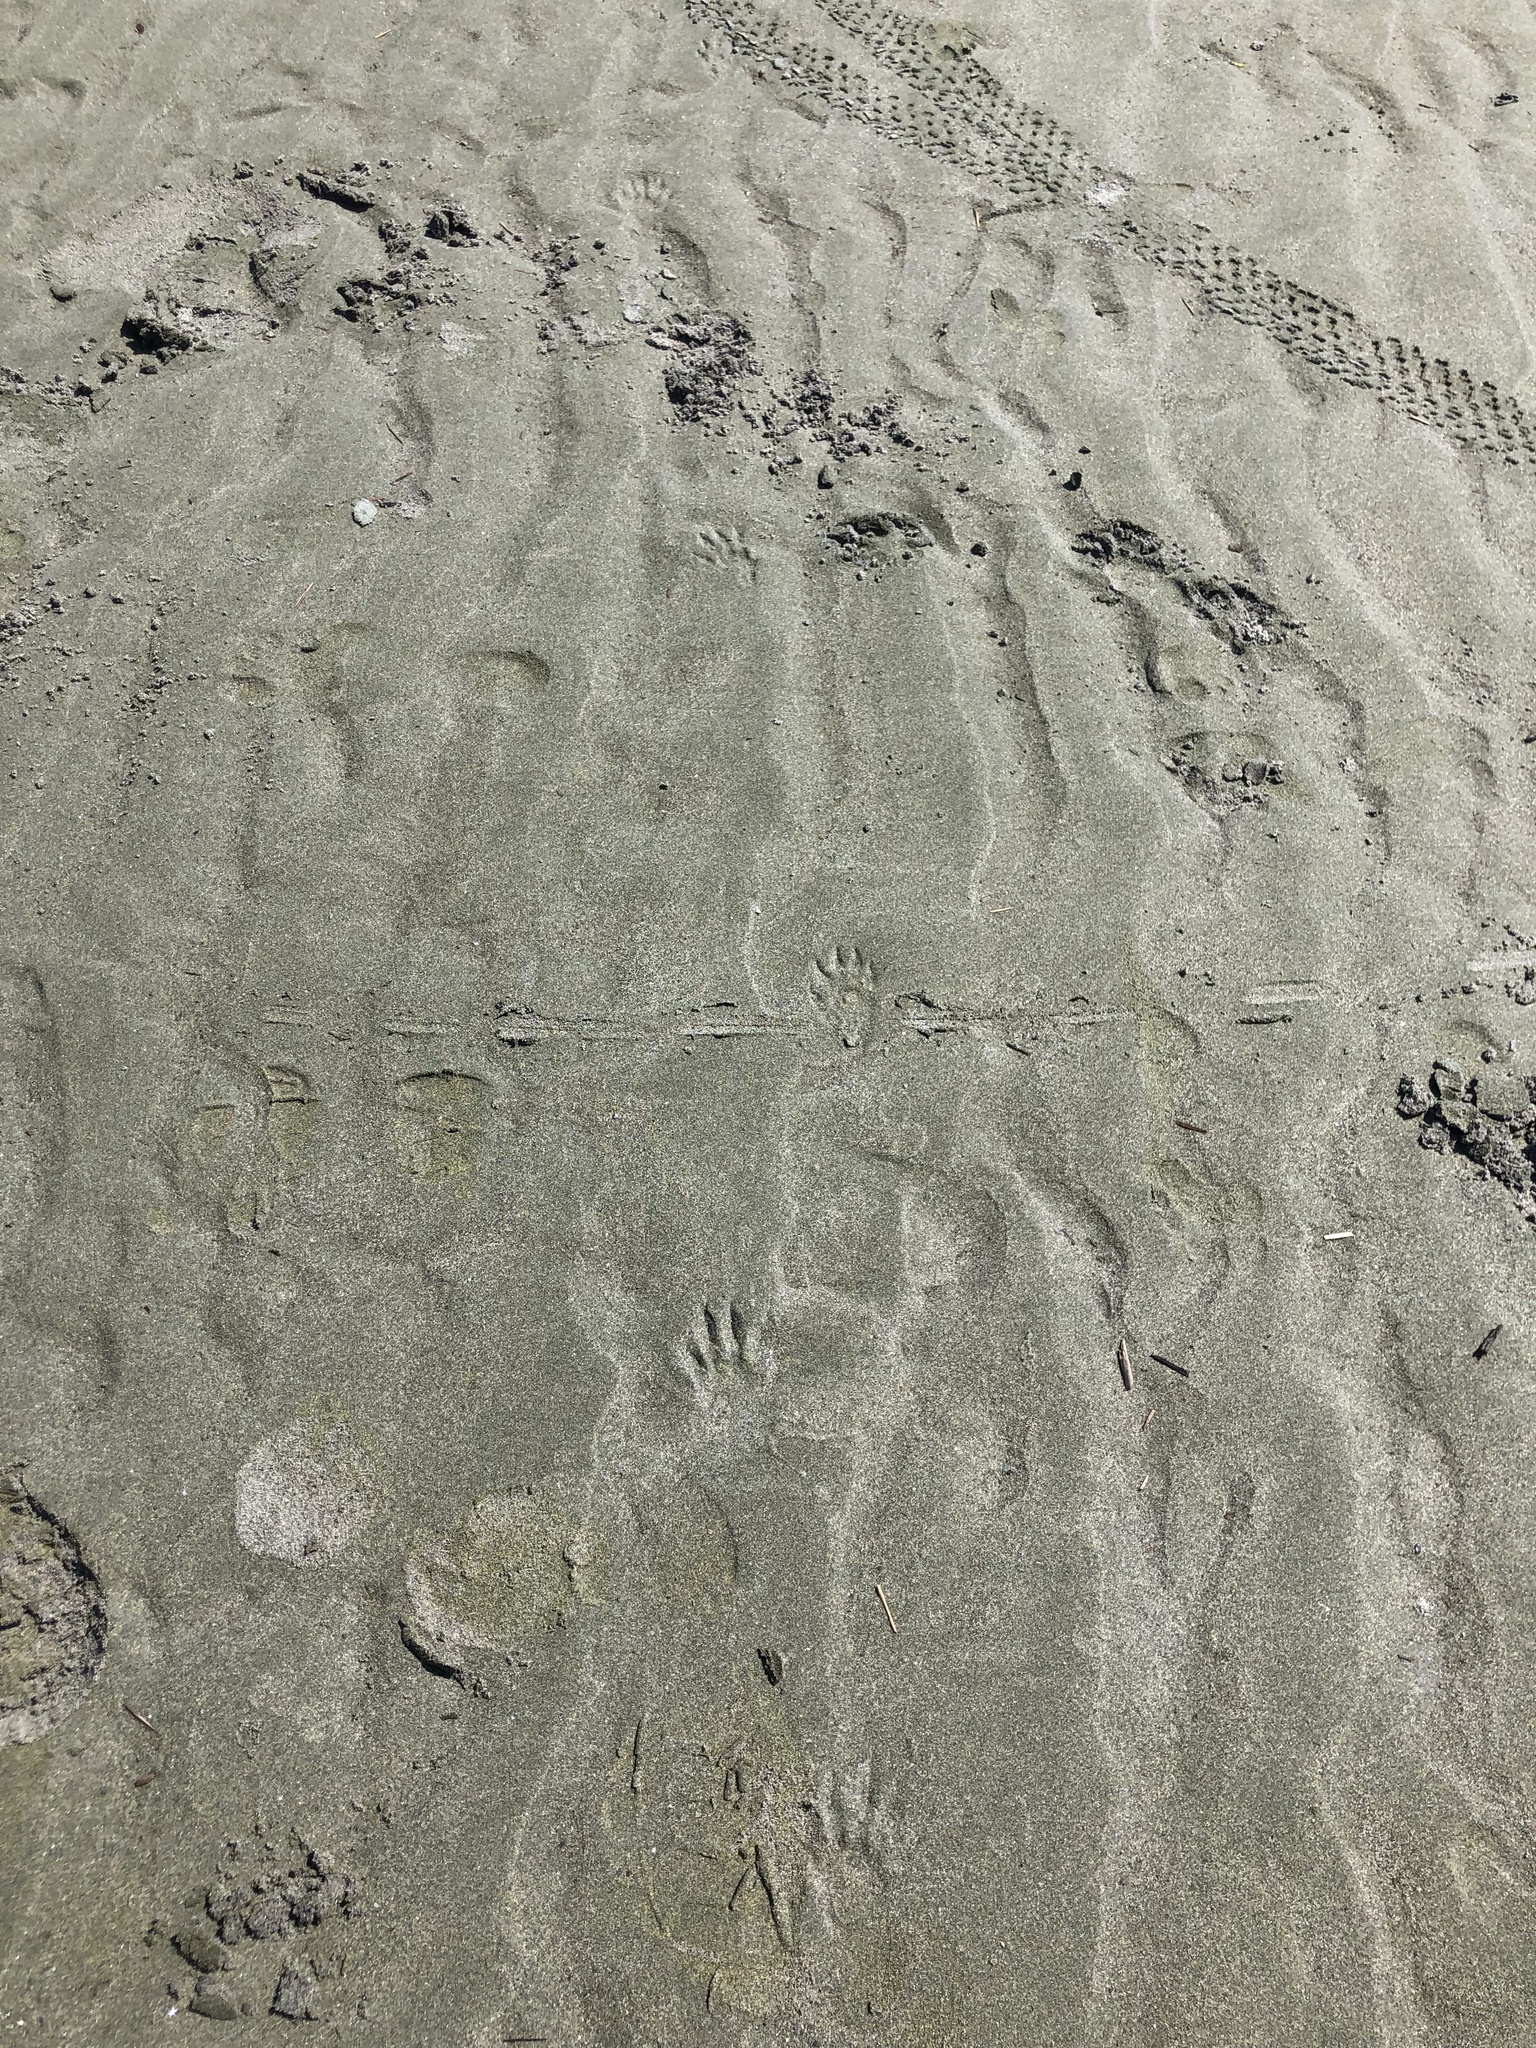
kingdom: Animalia
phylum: Chordata
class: Mammalia
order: Carnivora
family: Procyonidae
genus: Procyon
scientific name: Procyon lotor
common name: Raccoon
